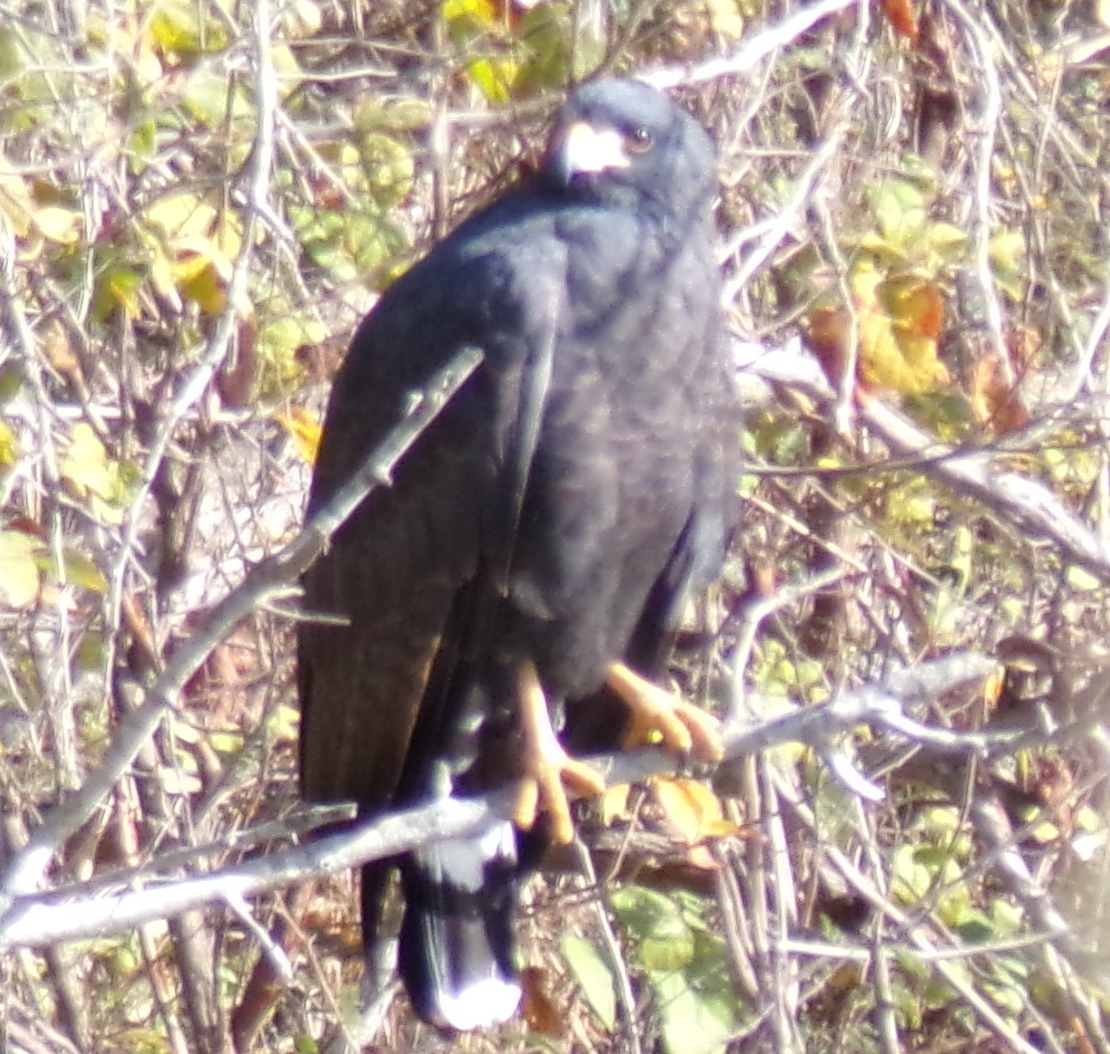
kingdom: Animalia
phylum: Chordata
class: Aves
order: Accipitriformes
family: Accipitridae
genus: Buteogallus
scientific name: Buteogallus anthracinus
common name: Common black hawk
